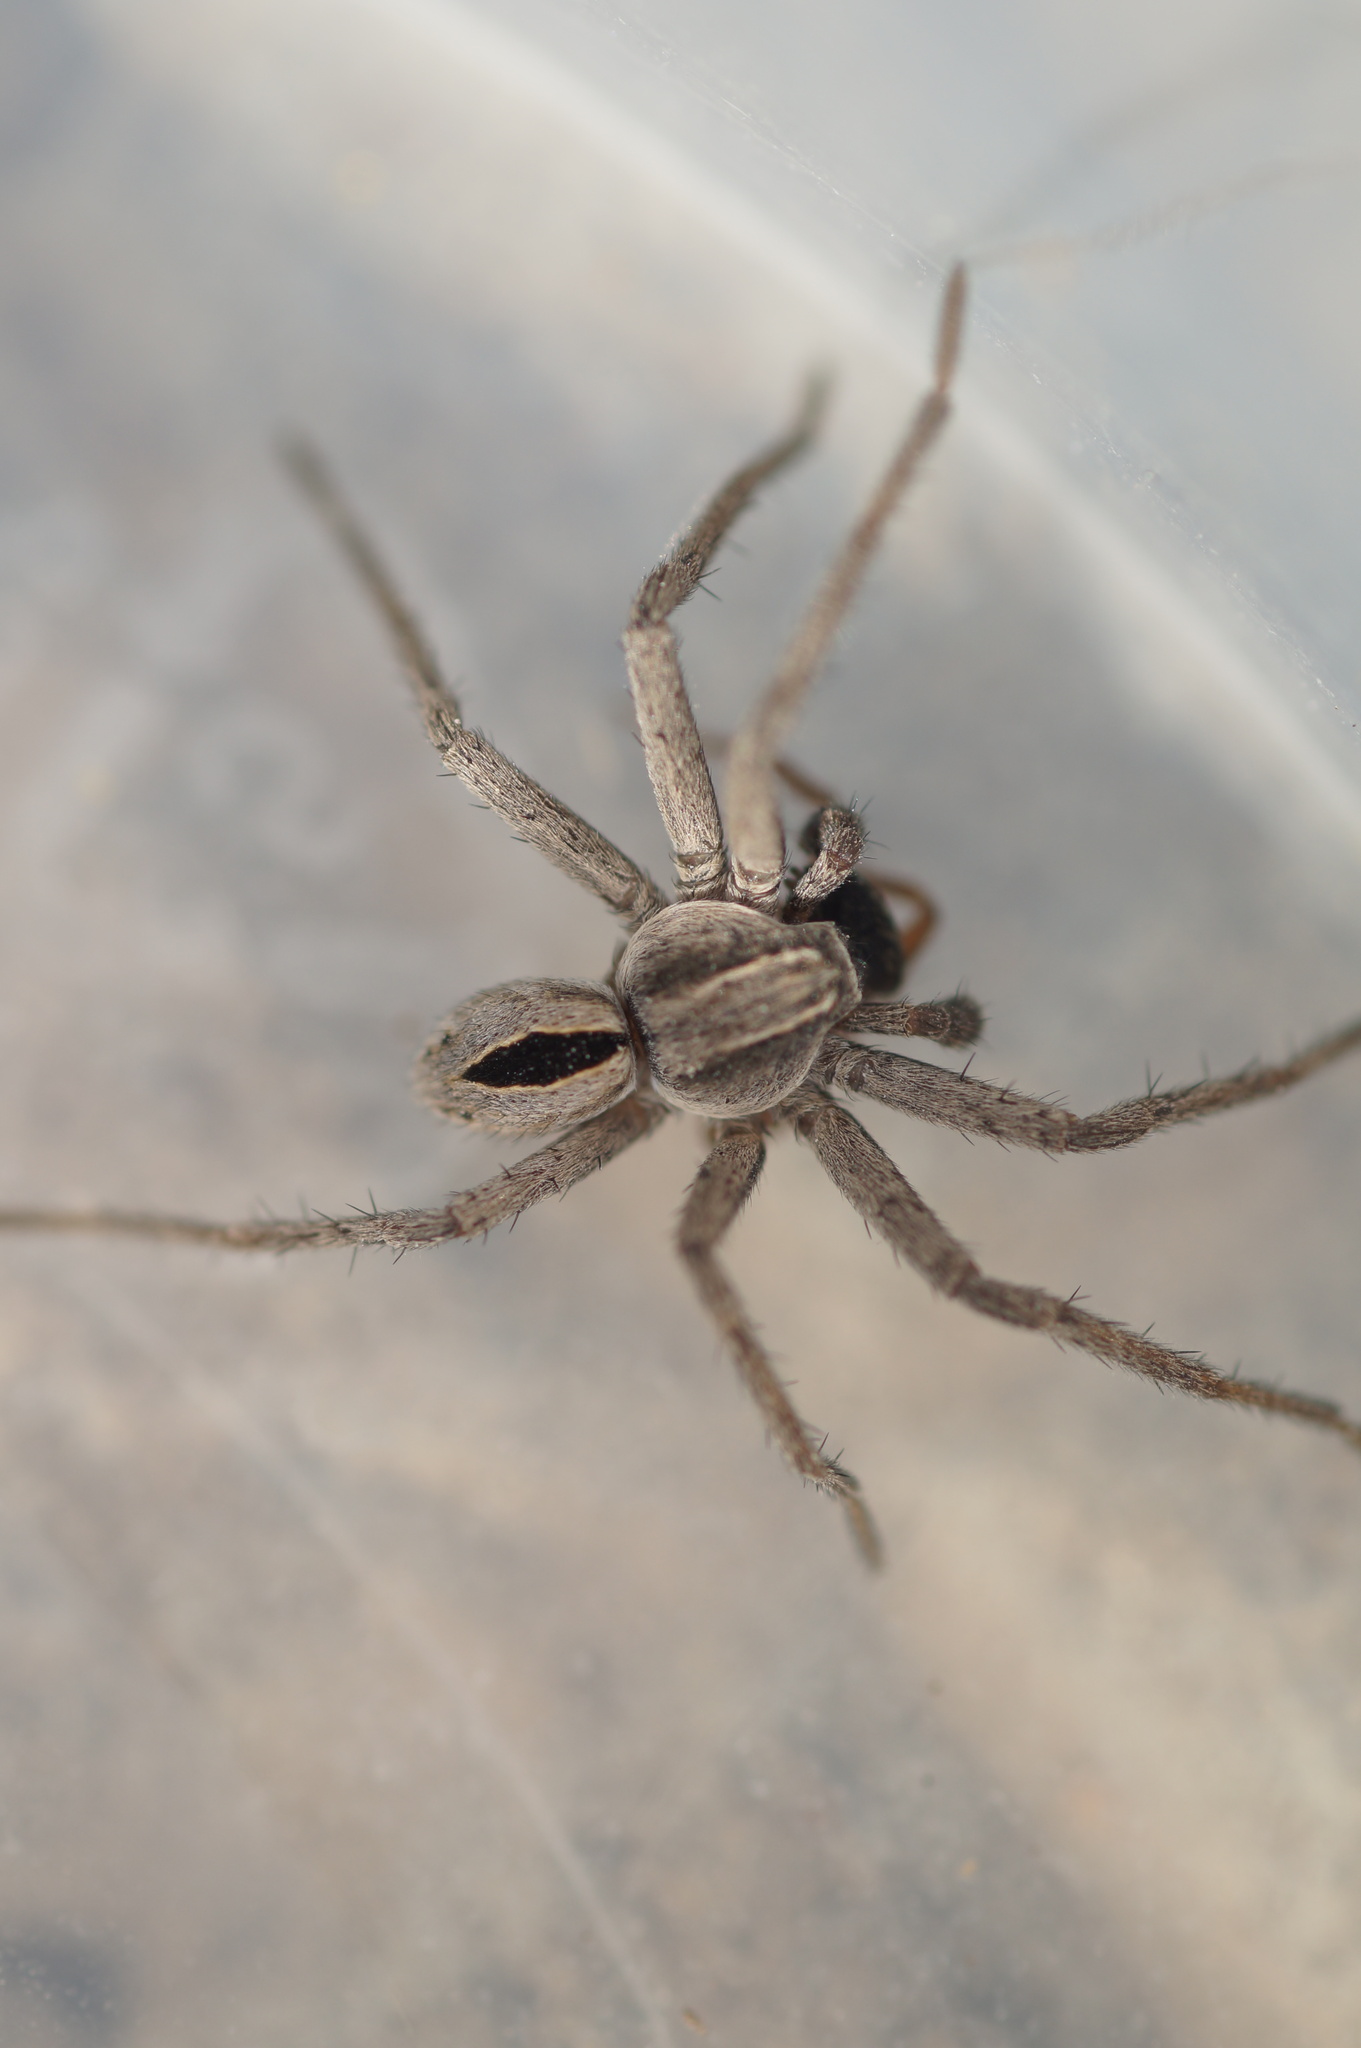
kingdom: Animalia
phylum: Arthropoda
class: Arachnida
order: Araneae
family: Philodromidae
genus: Thanatus
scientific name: Thanatus
